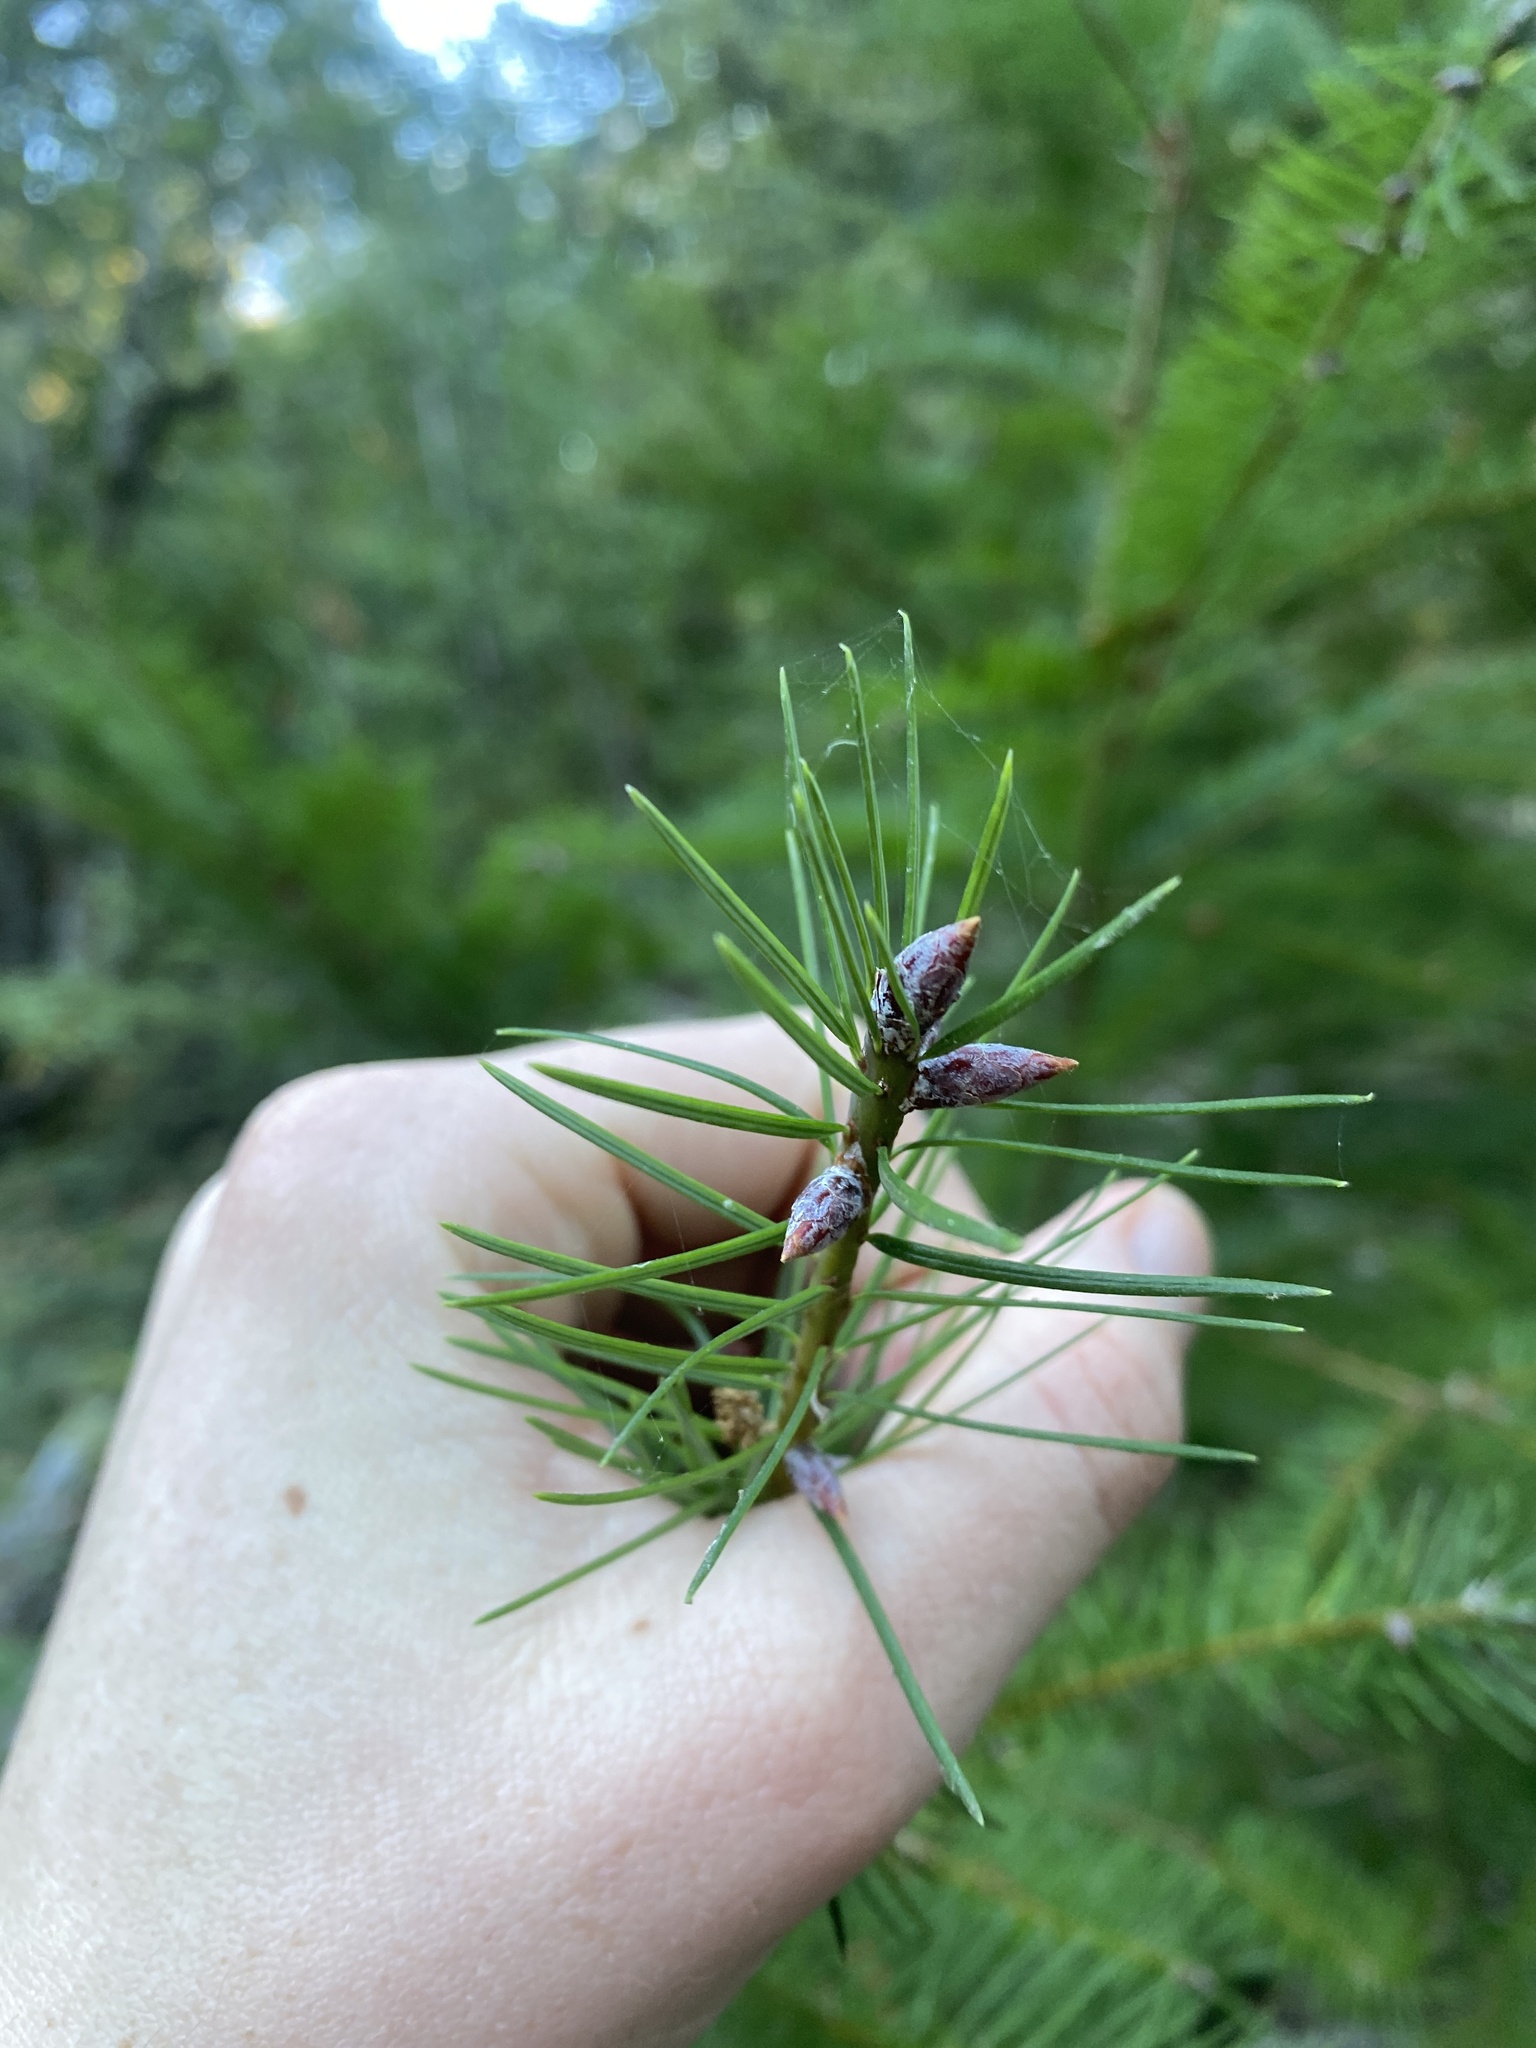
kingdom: Plantae
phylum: Tracheophyta
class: Pinopsida
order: Pinales
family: Pinaceae
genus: Pseudotsuga
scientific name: Pseudotsuga menziesii
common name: Douglas fir
